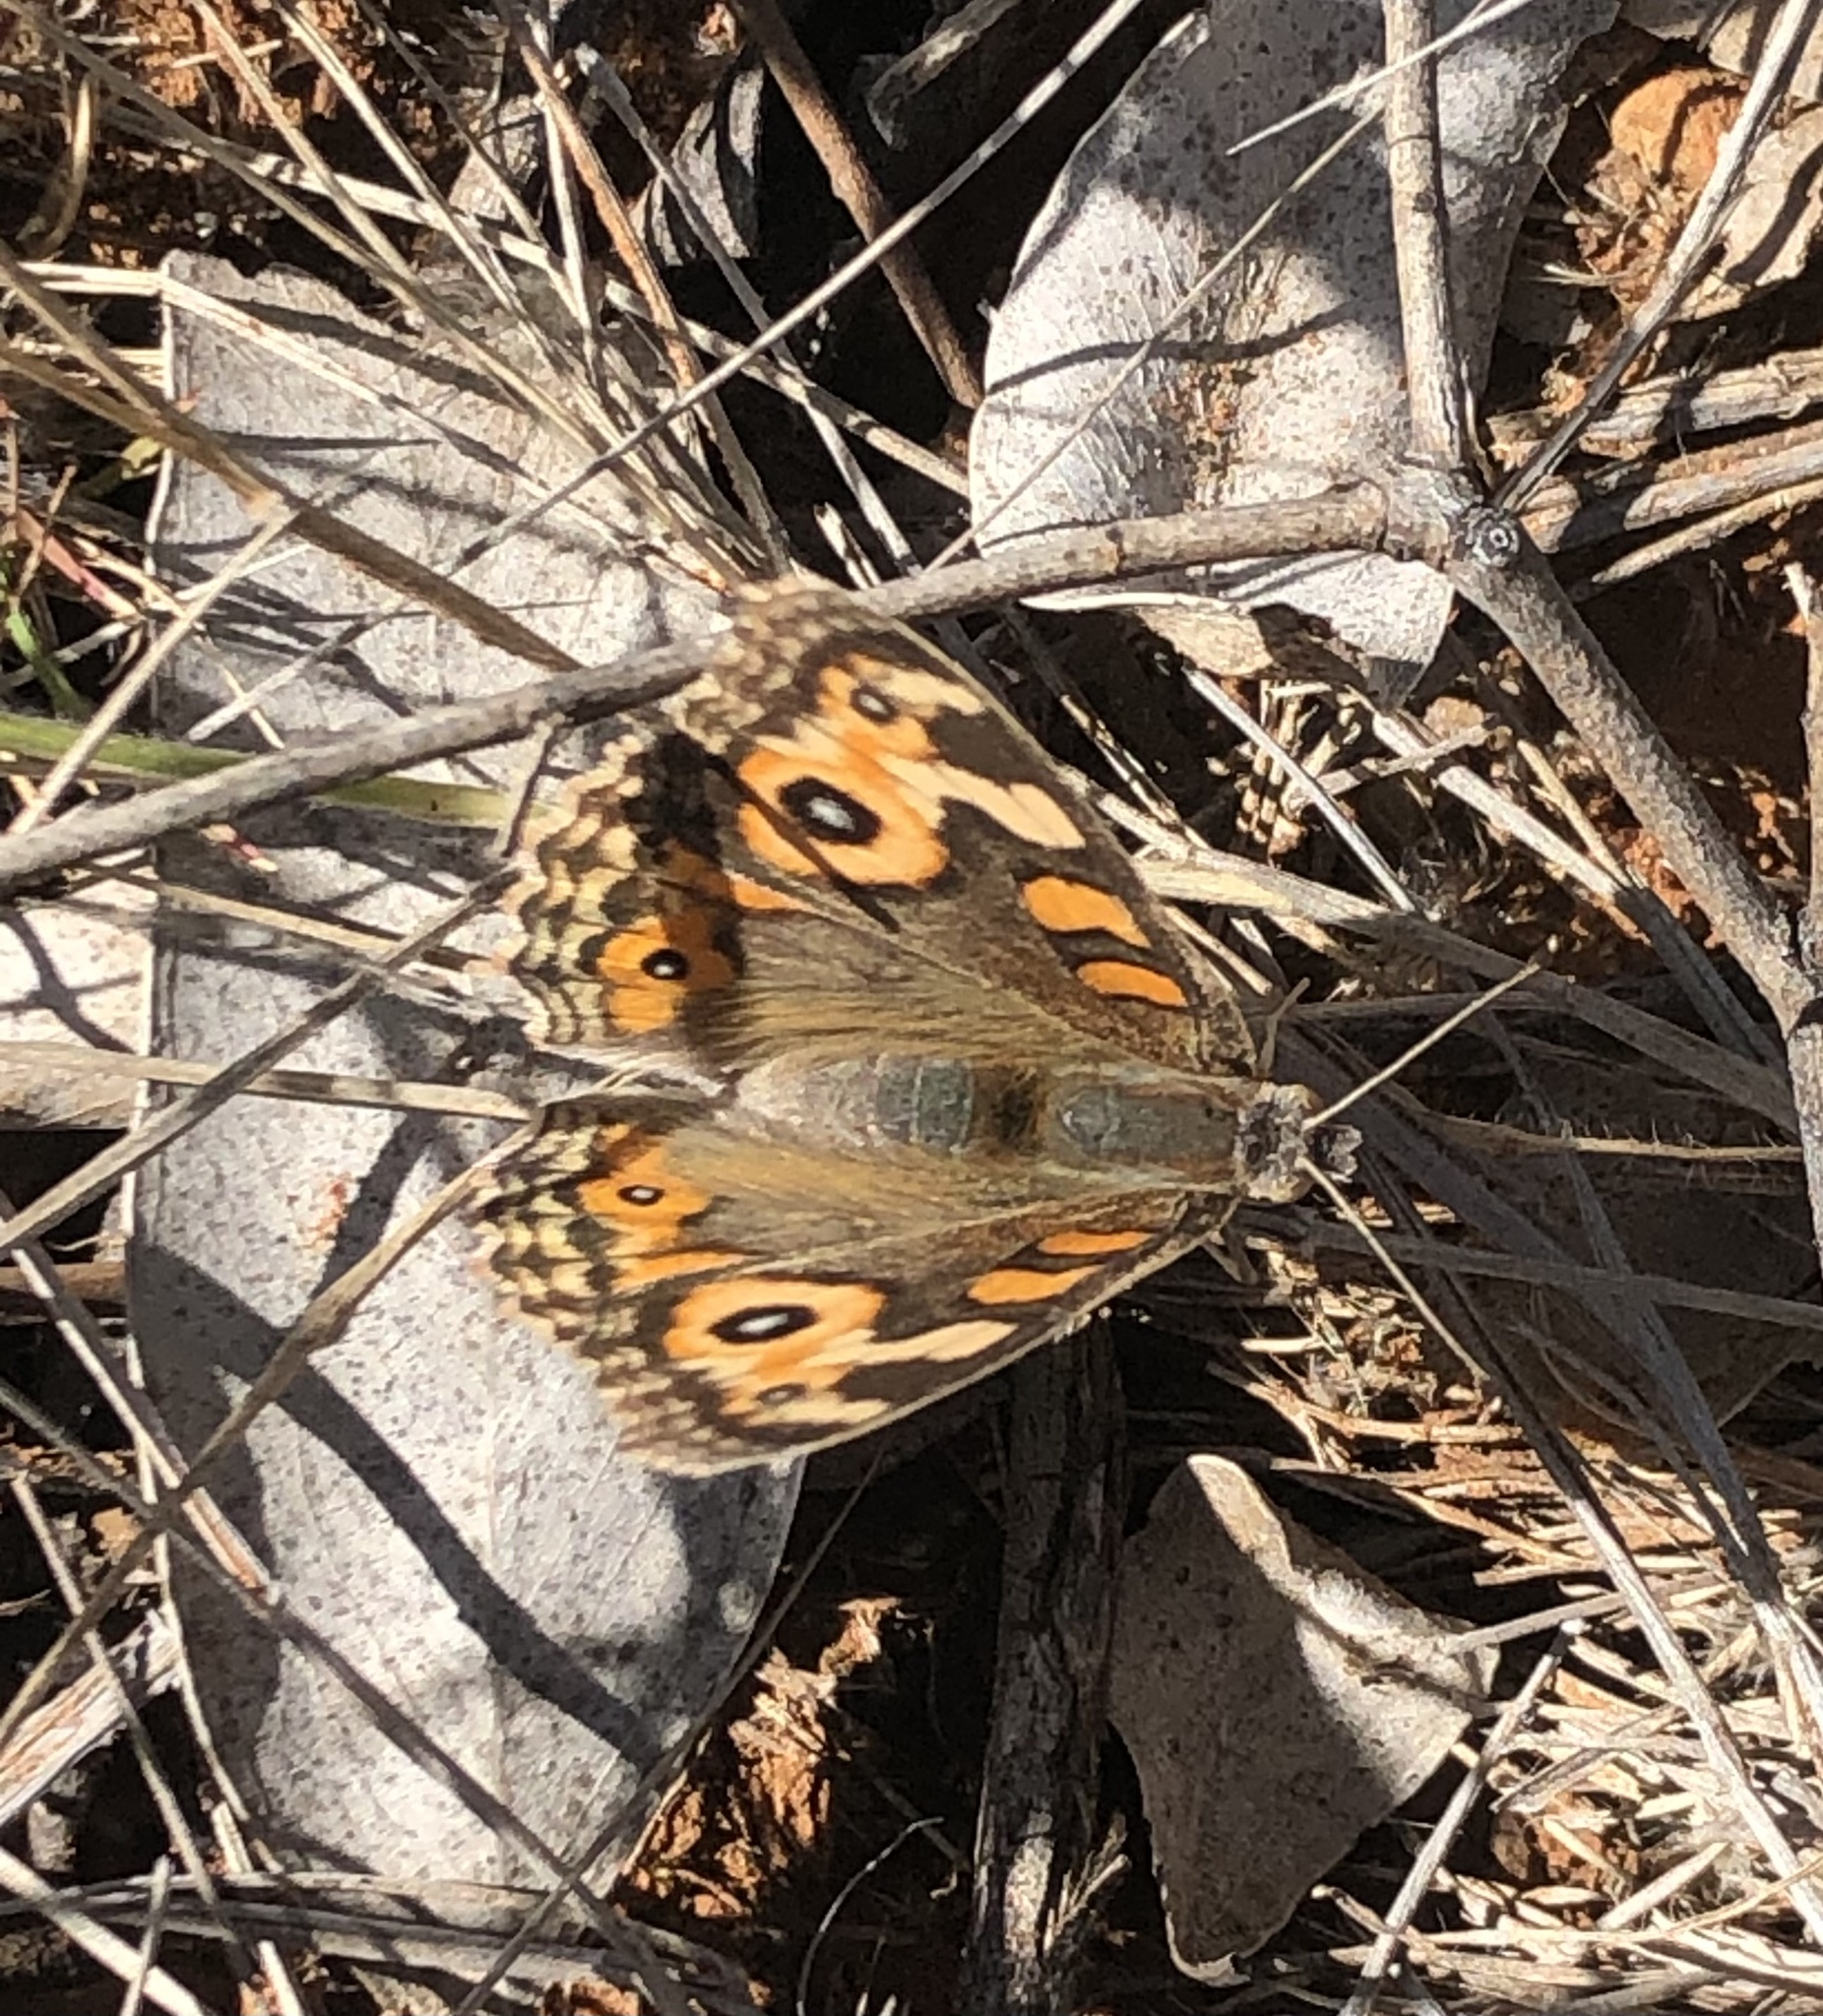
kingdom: Animalia
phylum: Arthropoda
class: Insecta
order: Lepidoptera
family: Nymphalidae
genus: Junonia
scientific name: Junonia villida
